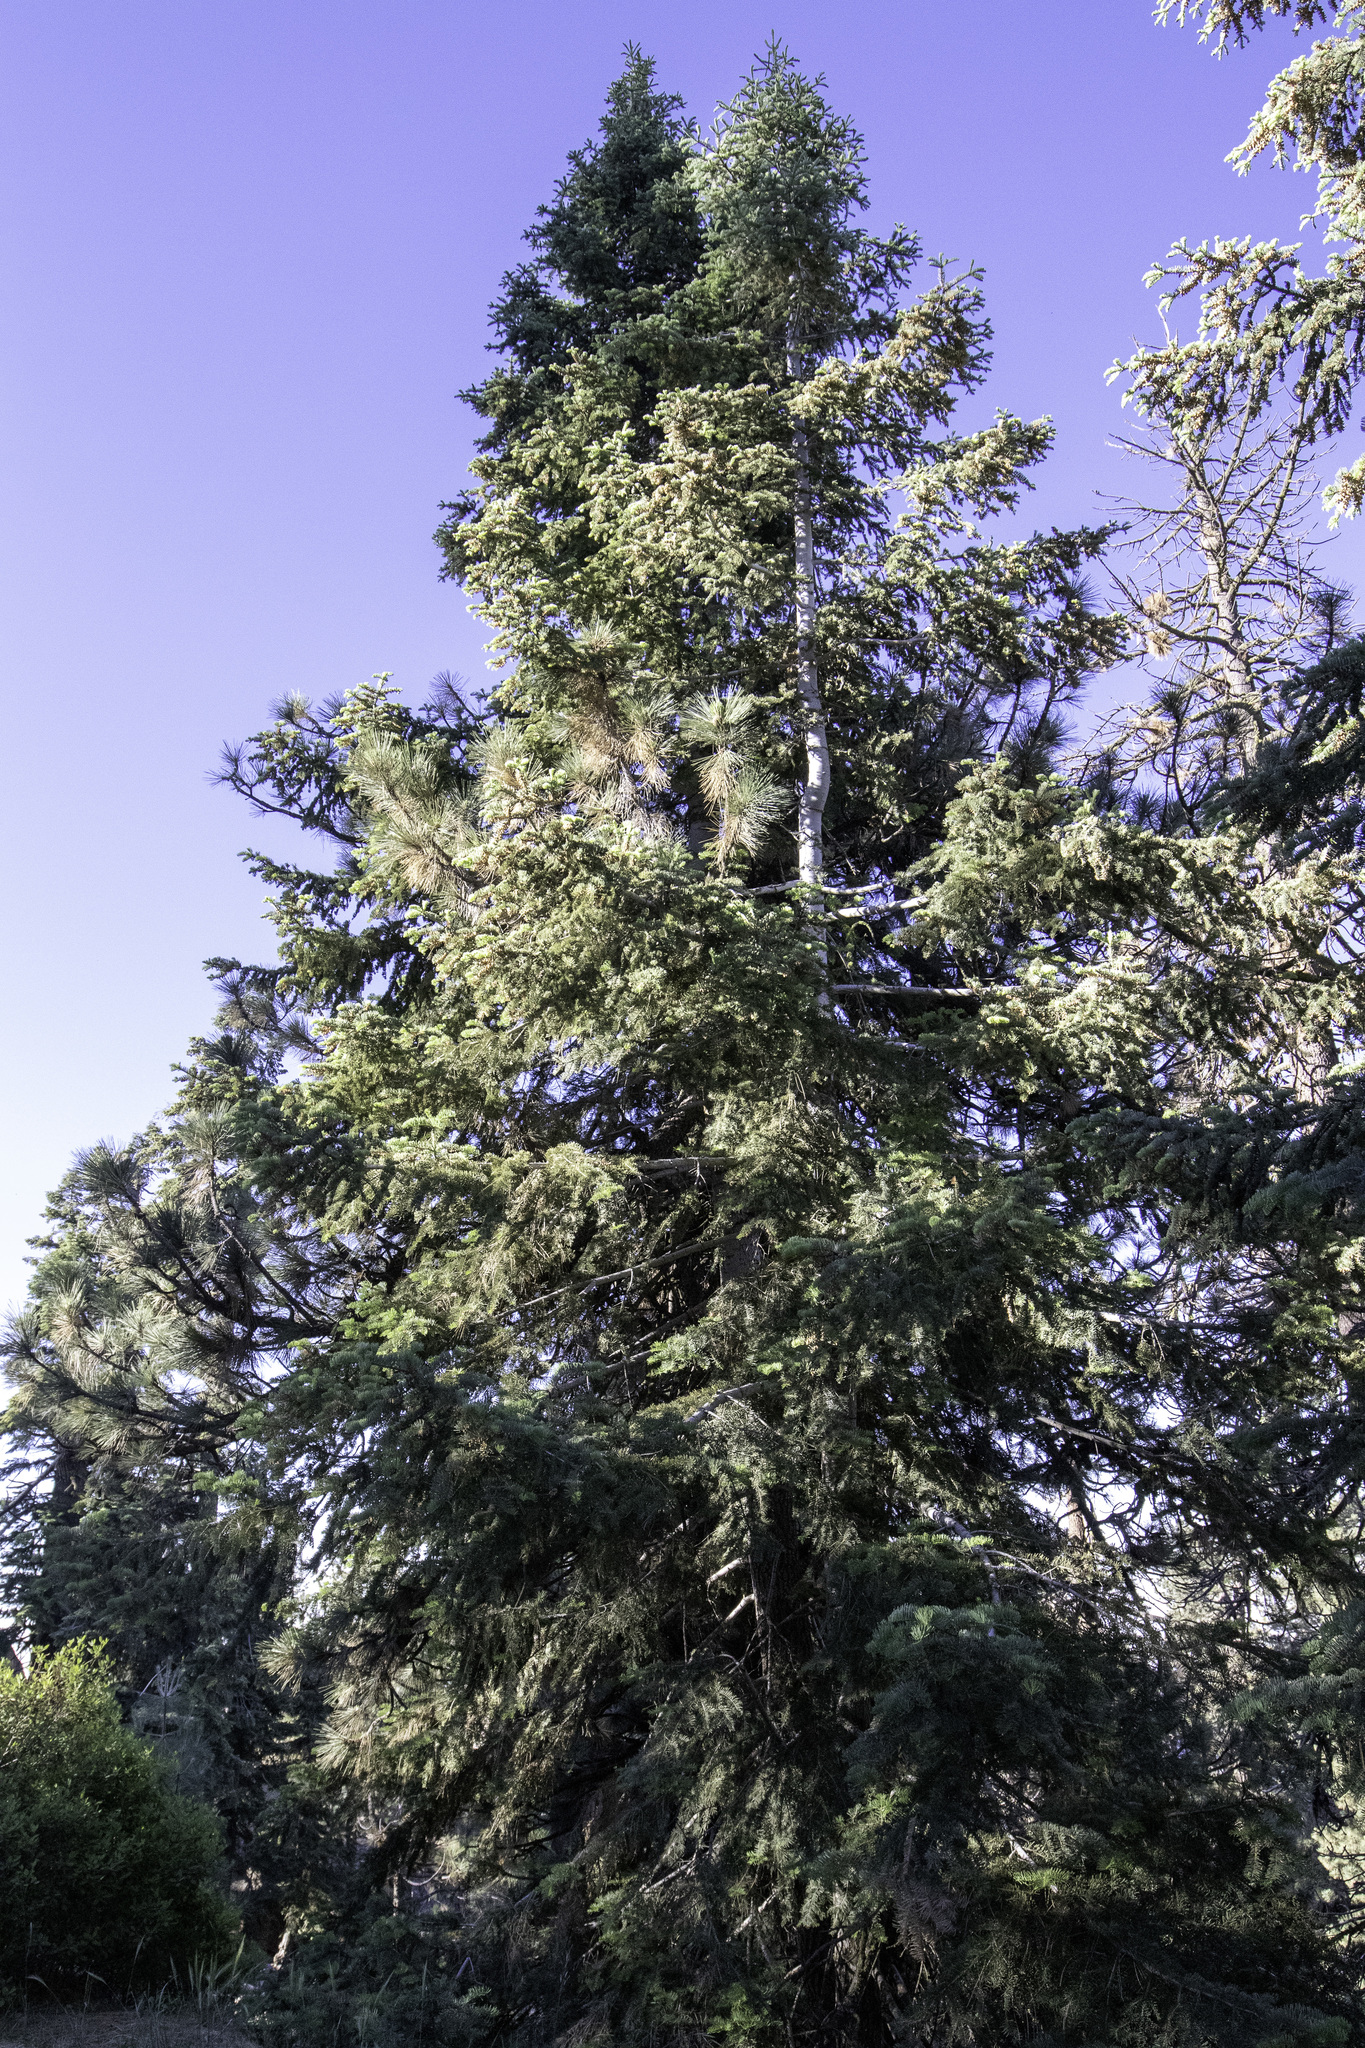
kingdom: Plantae
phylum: Tracheophyta
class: Pinopsida
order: Pinales
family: Pinaceae
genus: Abies
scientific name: Abies concolor
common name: Colorado fir
